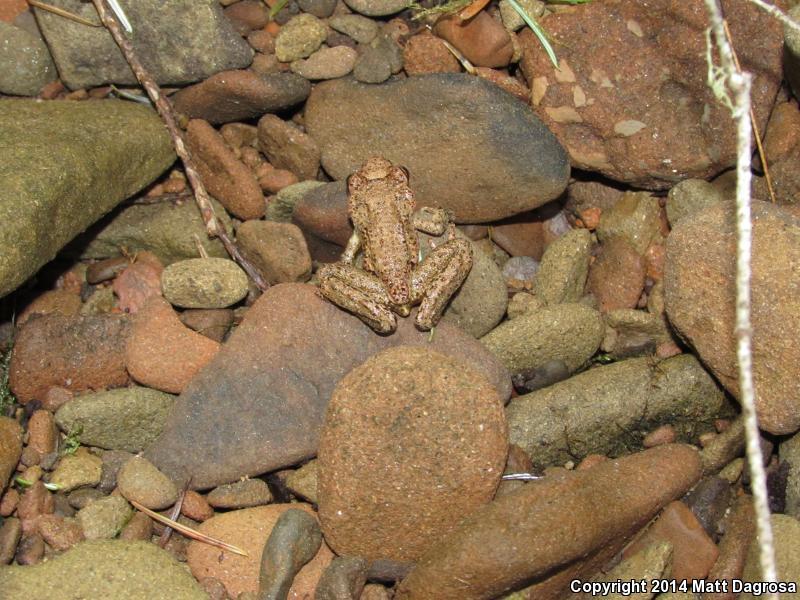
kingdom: Animalia
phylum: Chordata
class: Amphibia
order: Anura
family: Ascaphidae
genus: Ascaphus
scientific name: Ascaphus truei
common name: Tailed frog
